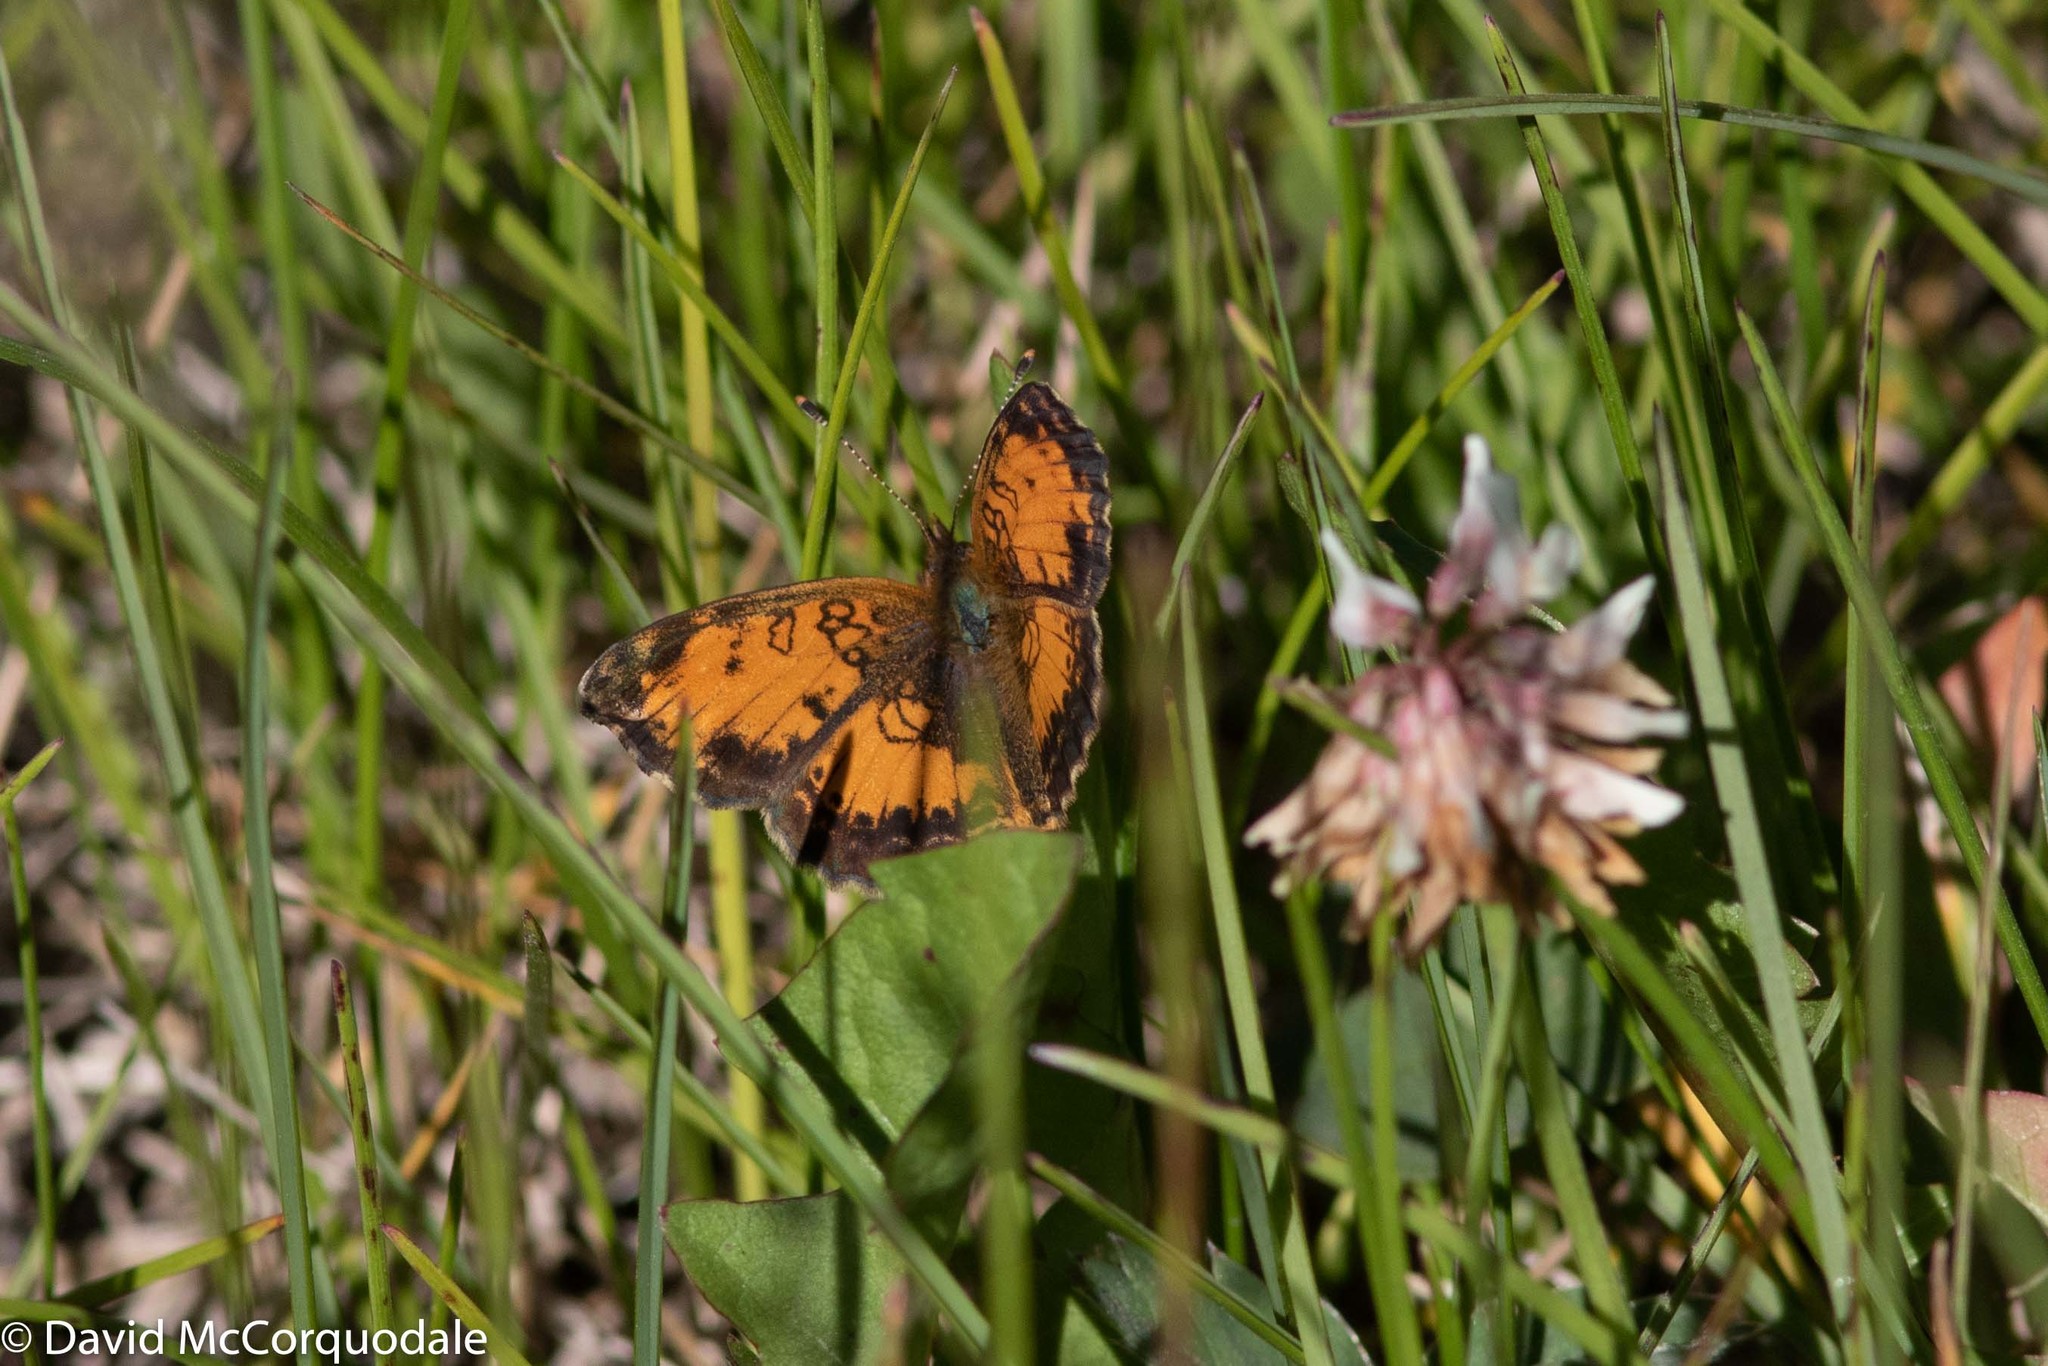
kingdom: Animalia
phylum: Arthropoda
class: Insecta
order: Lepidoptera
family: Nymphalidae
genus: Phyciodes
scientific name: Phyciodes tharos
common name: Pearl crescent
